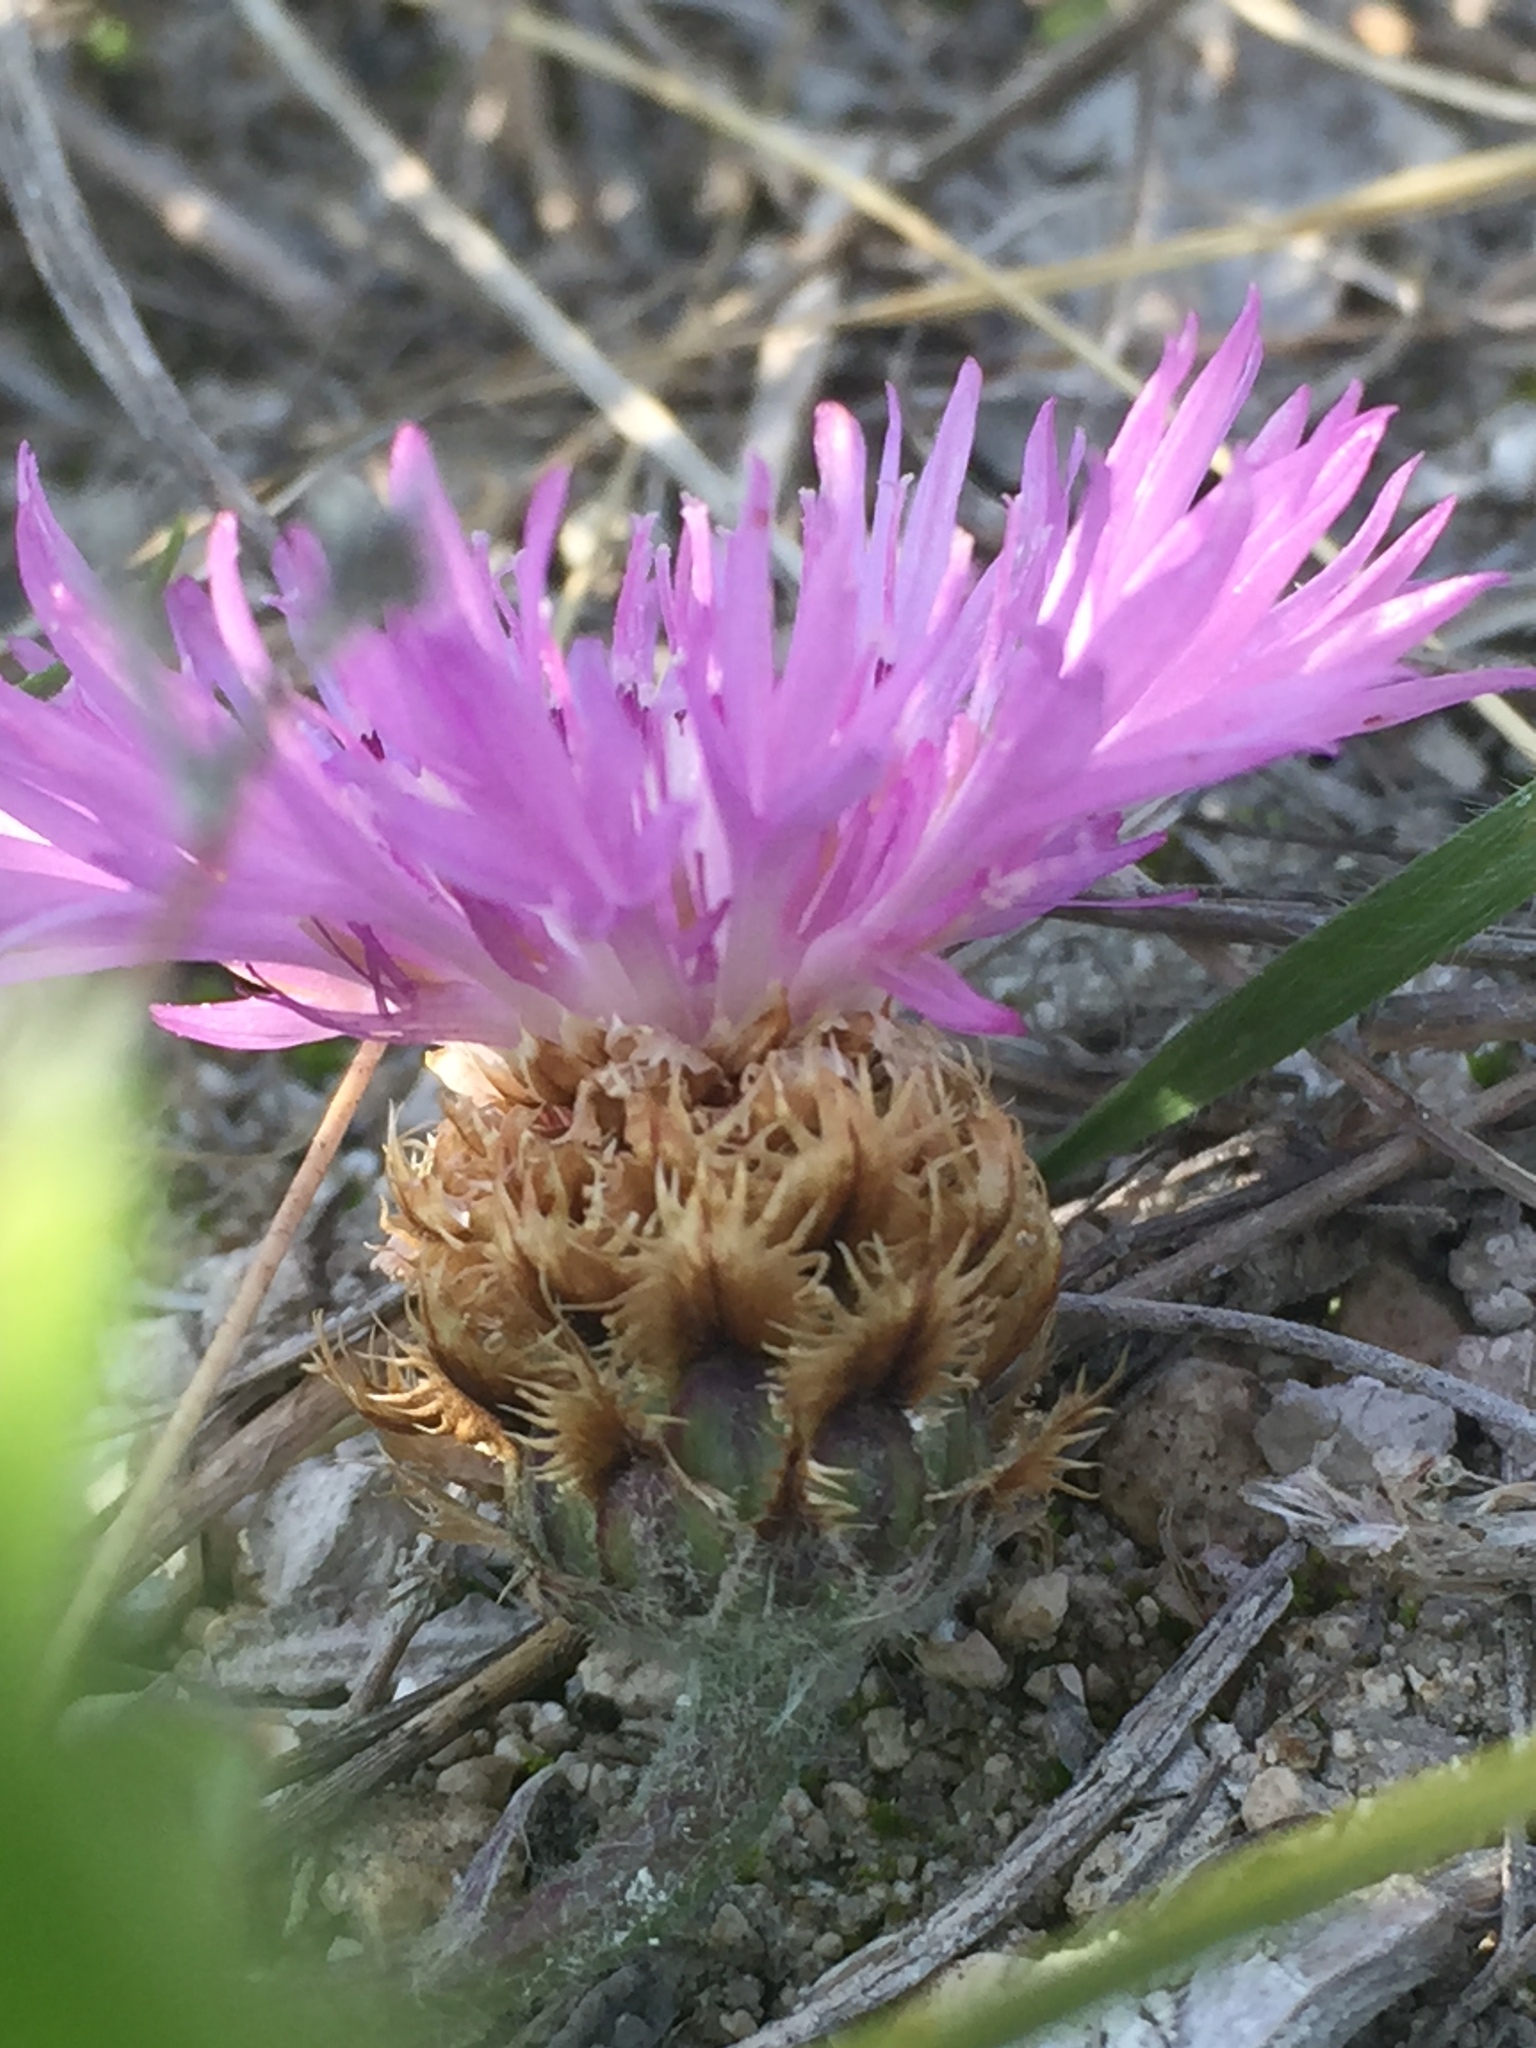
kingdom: Plantae
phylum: Tracheophyta
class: Magnoliopsida
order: Asterales
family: Asteraceae
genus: Psephellus
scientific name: Psephellus marschallianus
